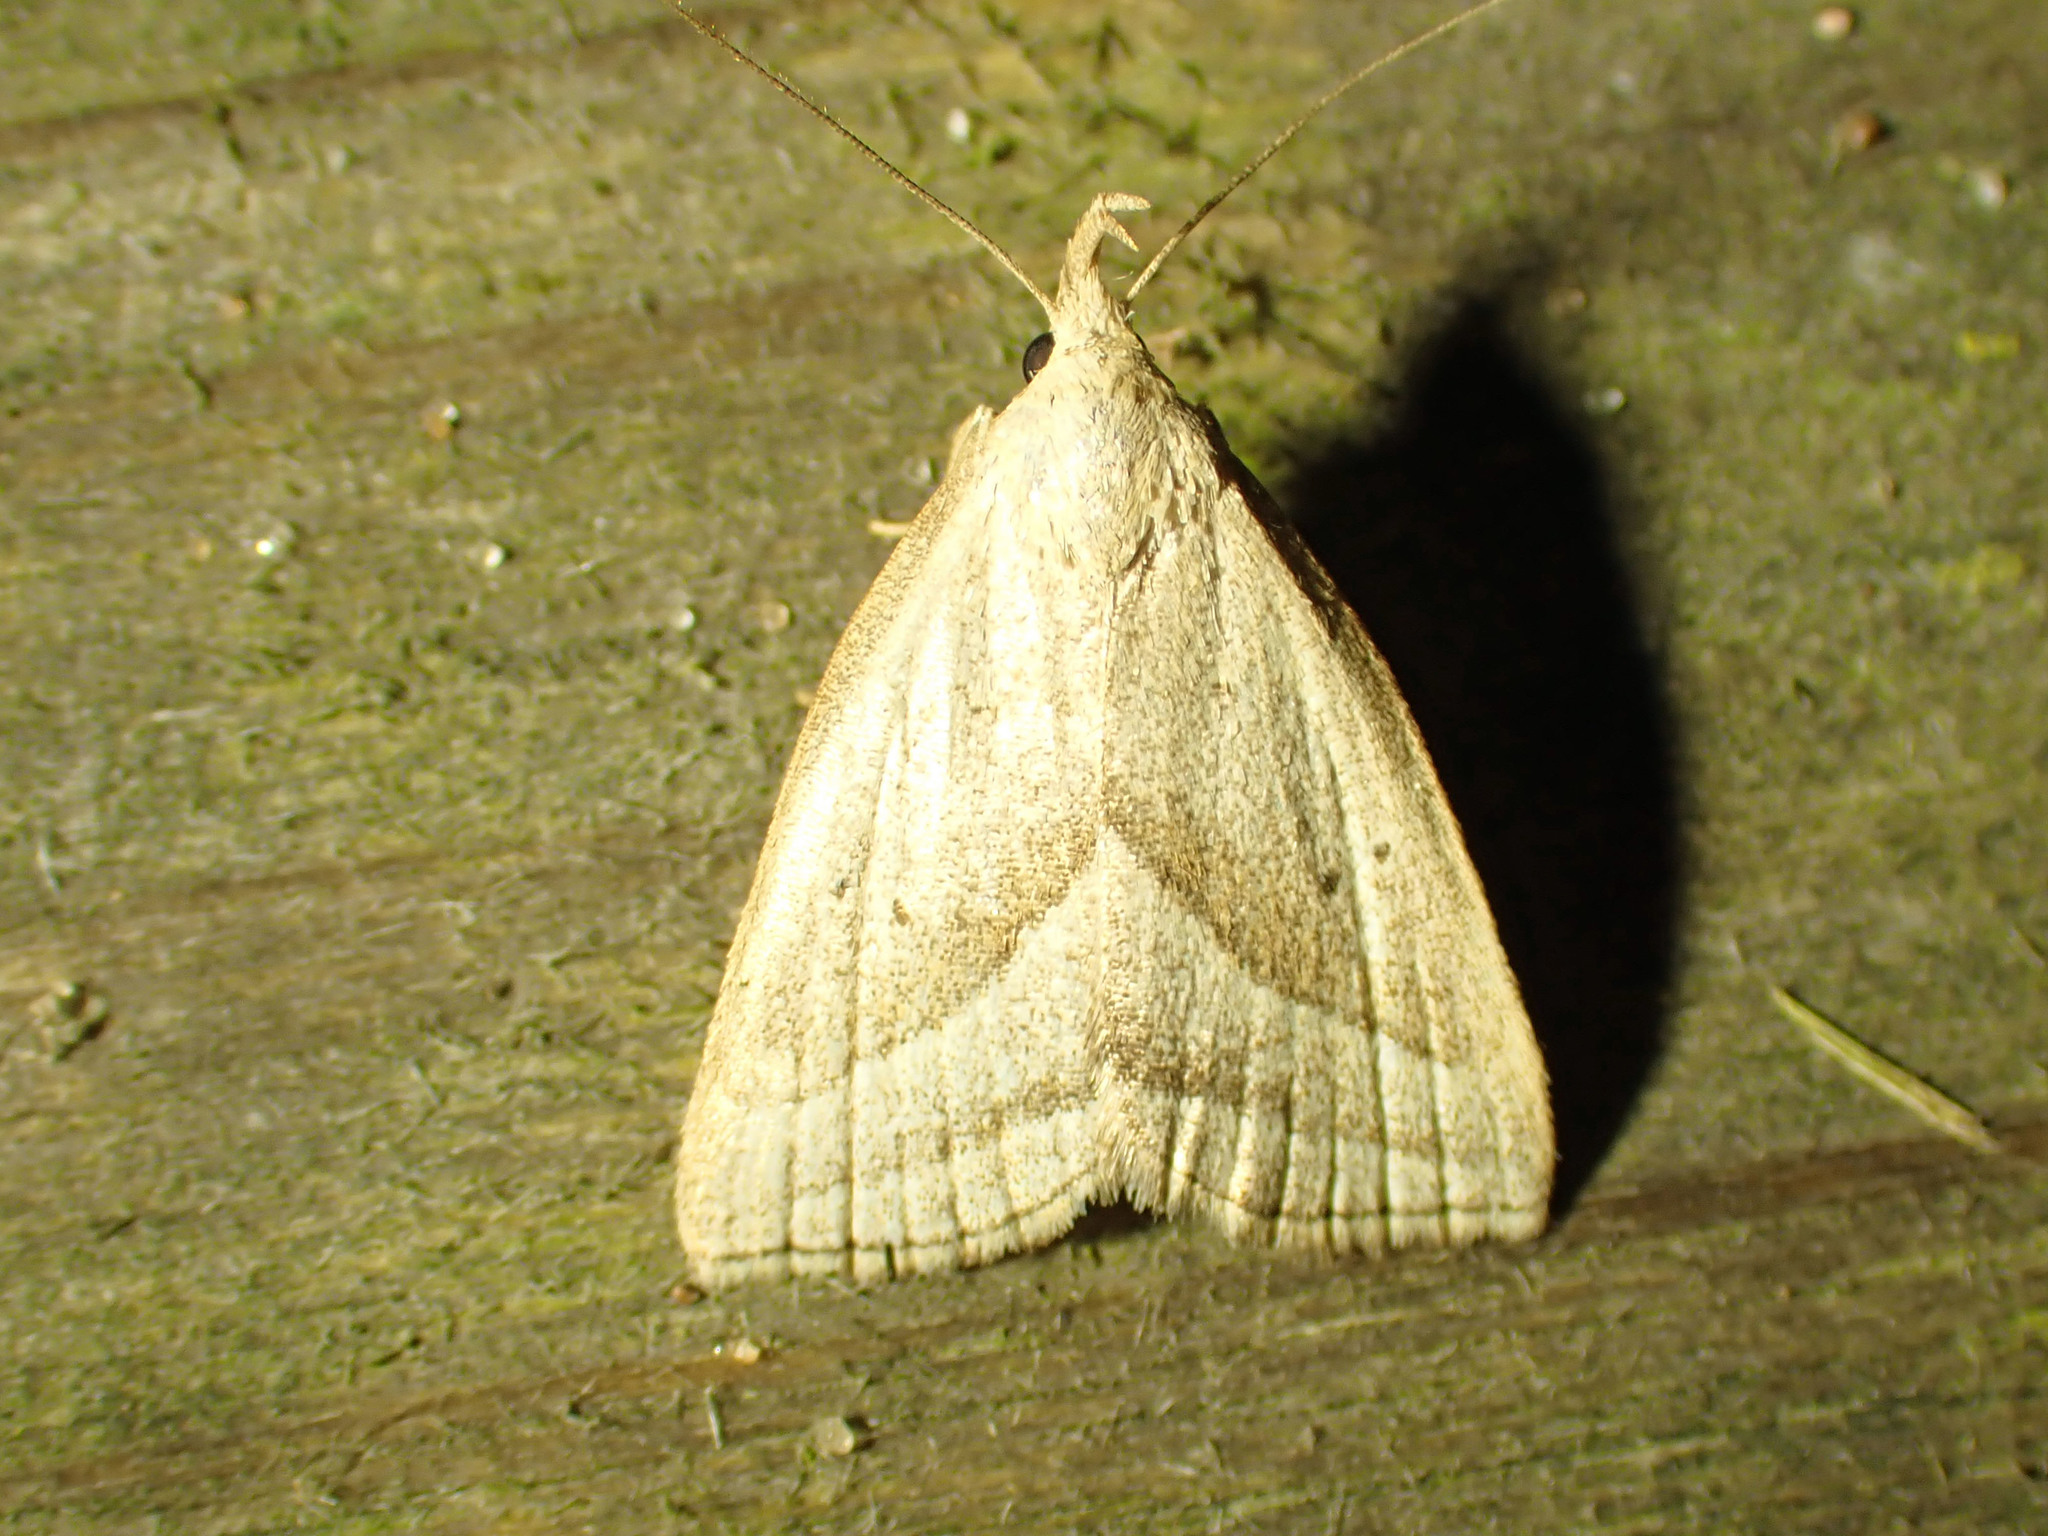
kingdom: Animalia
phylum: Arthropoda
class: Insecta
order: Lepidoptera
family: Erebidae
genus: Macrochilo
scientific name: Macrochilo absorptalis
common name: Slant-lined owlet
